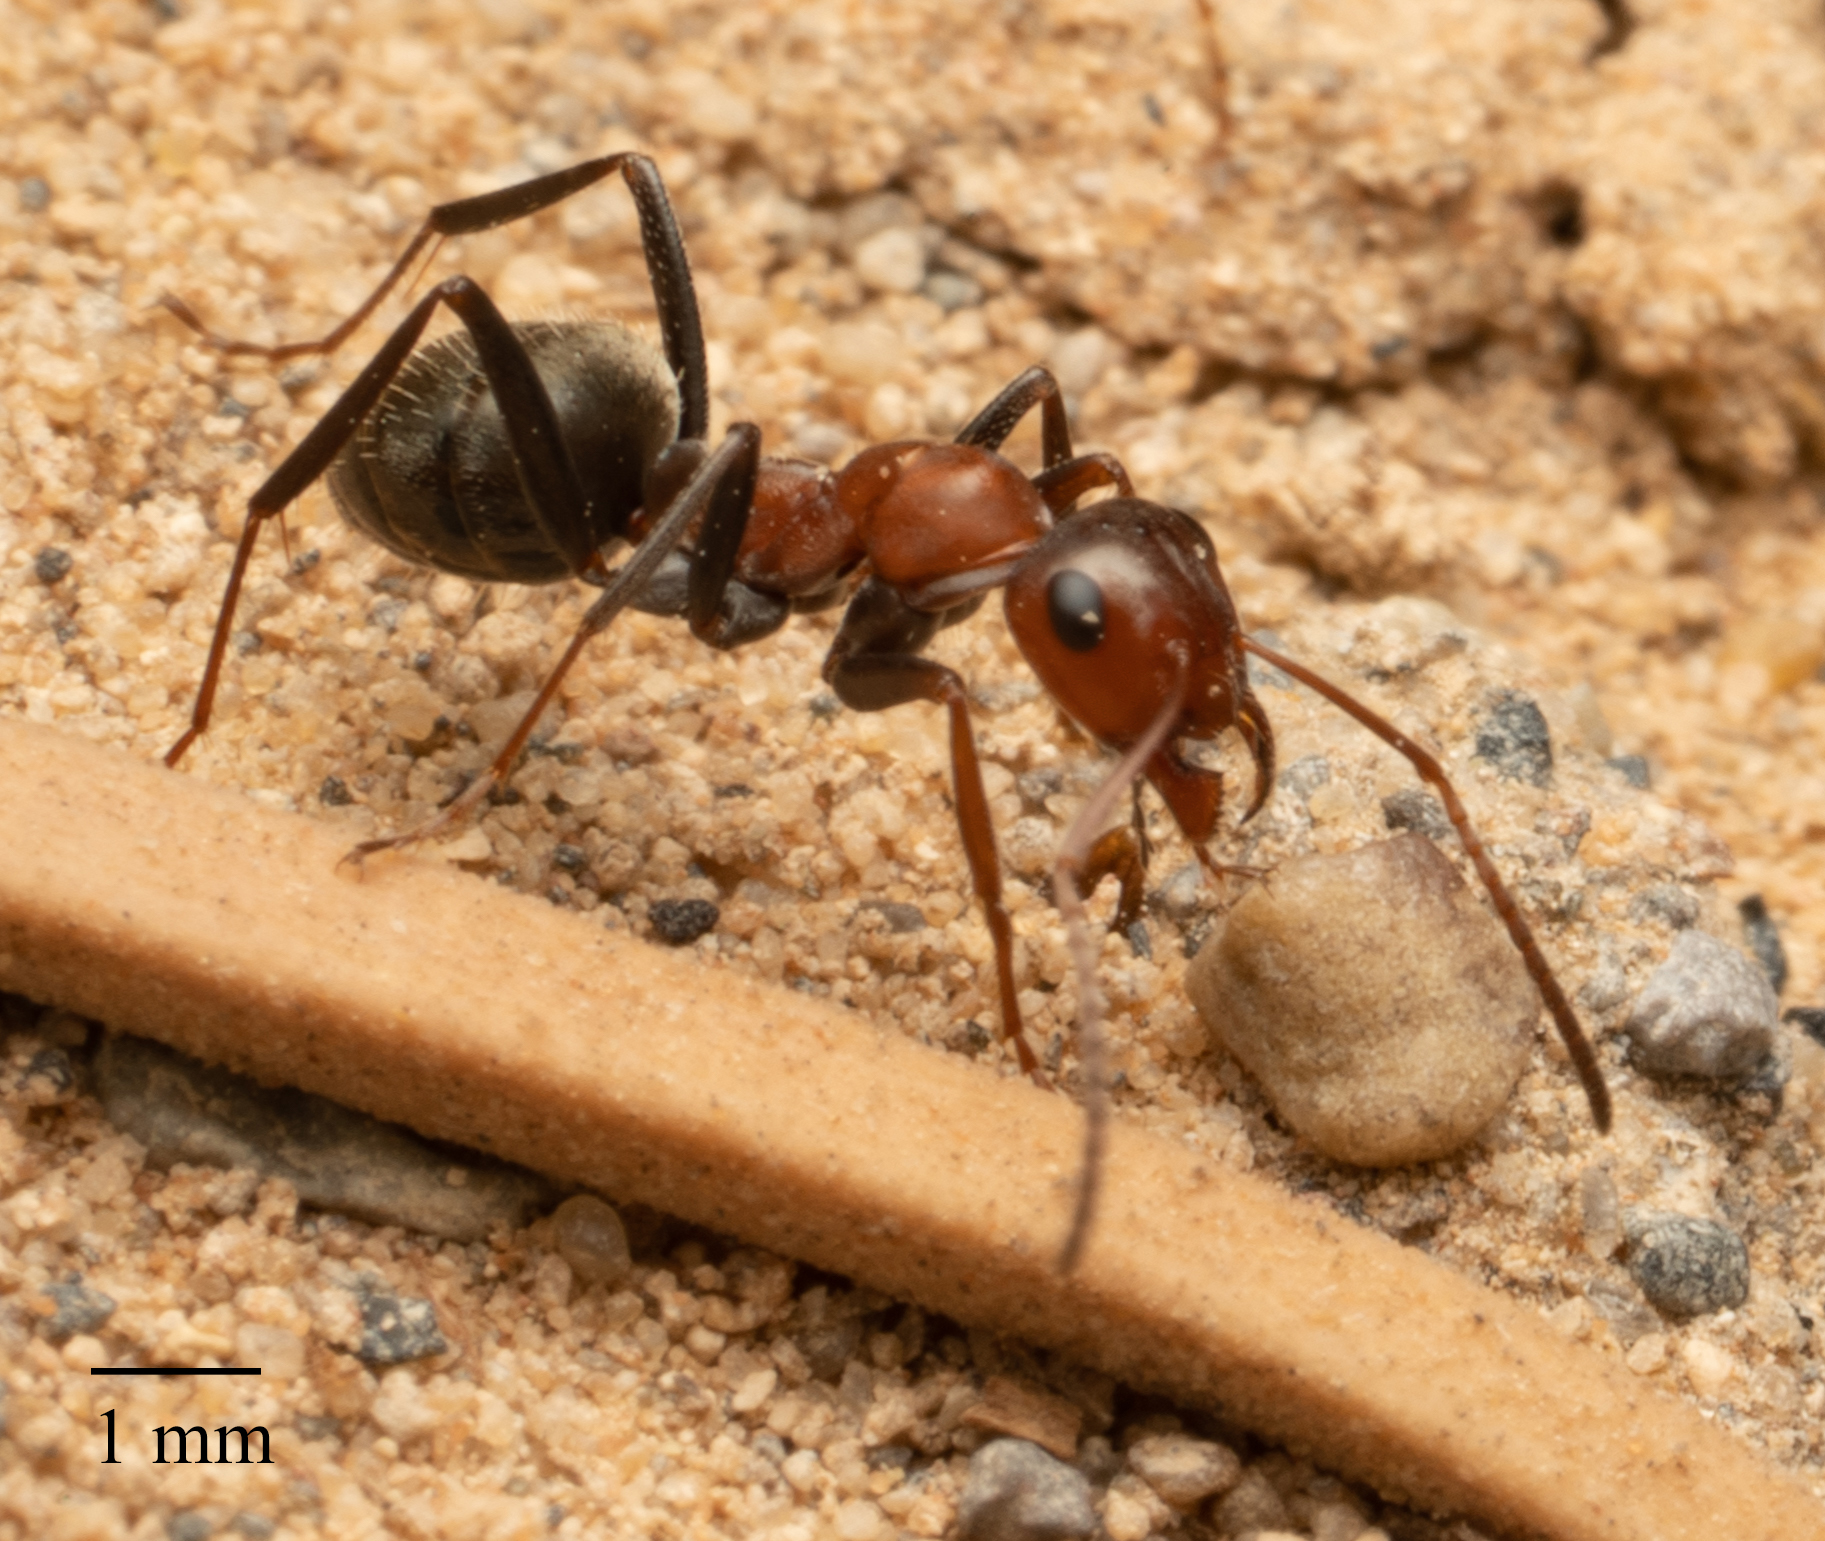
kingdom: Animalia
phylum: Arthropoda
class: Insecta
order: Hymenoptera
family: Formicidae
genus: Formica
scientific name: Formica obtusopilosa
